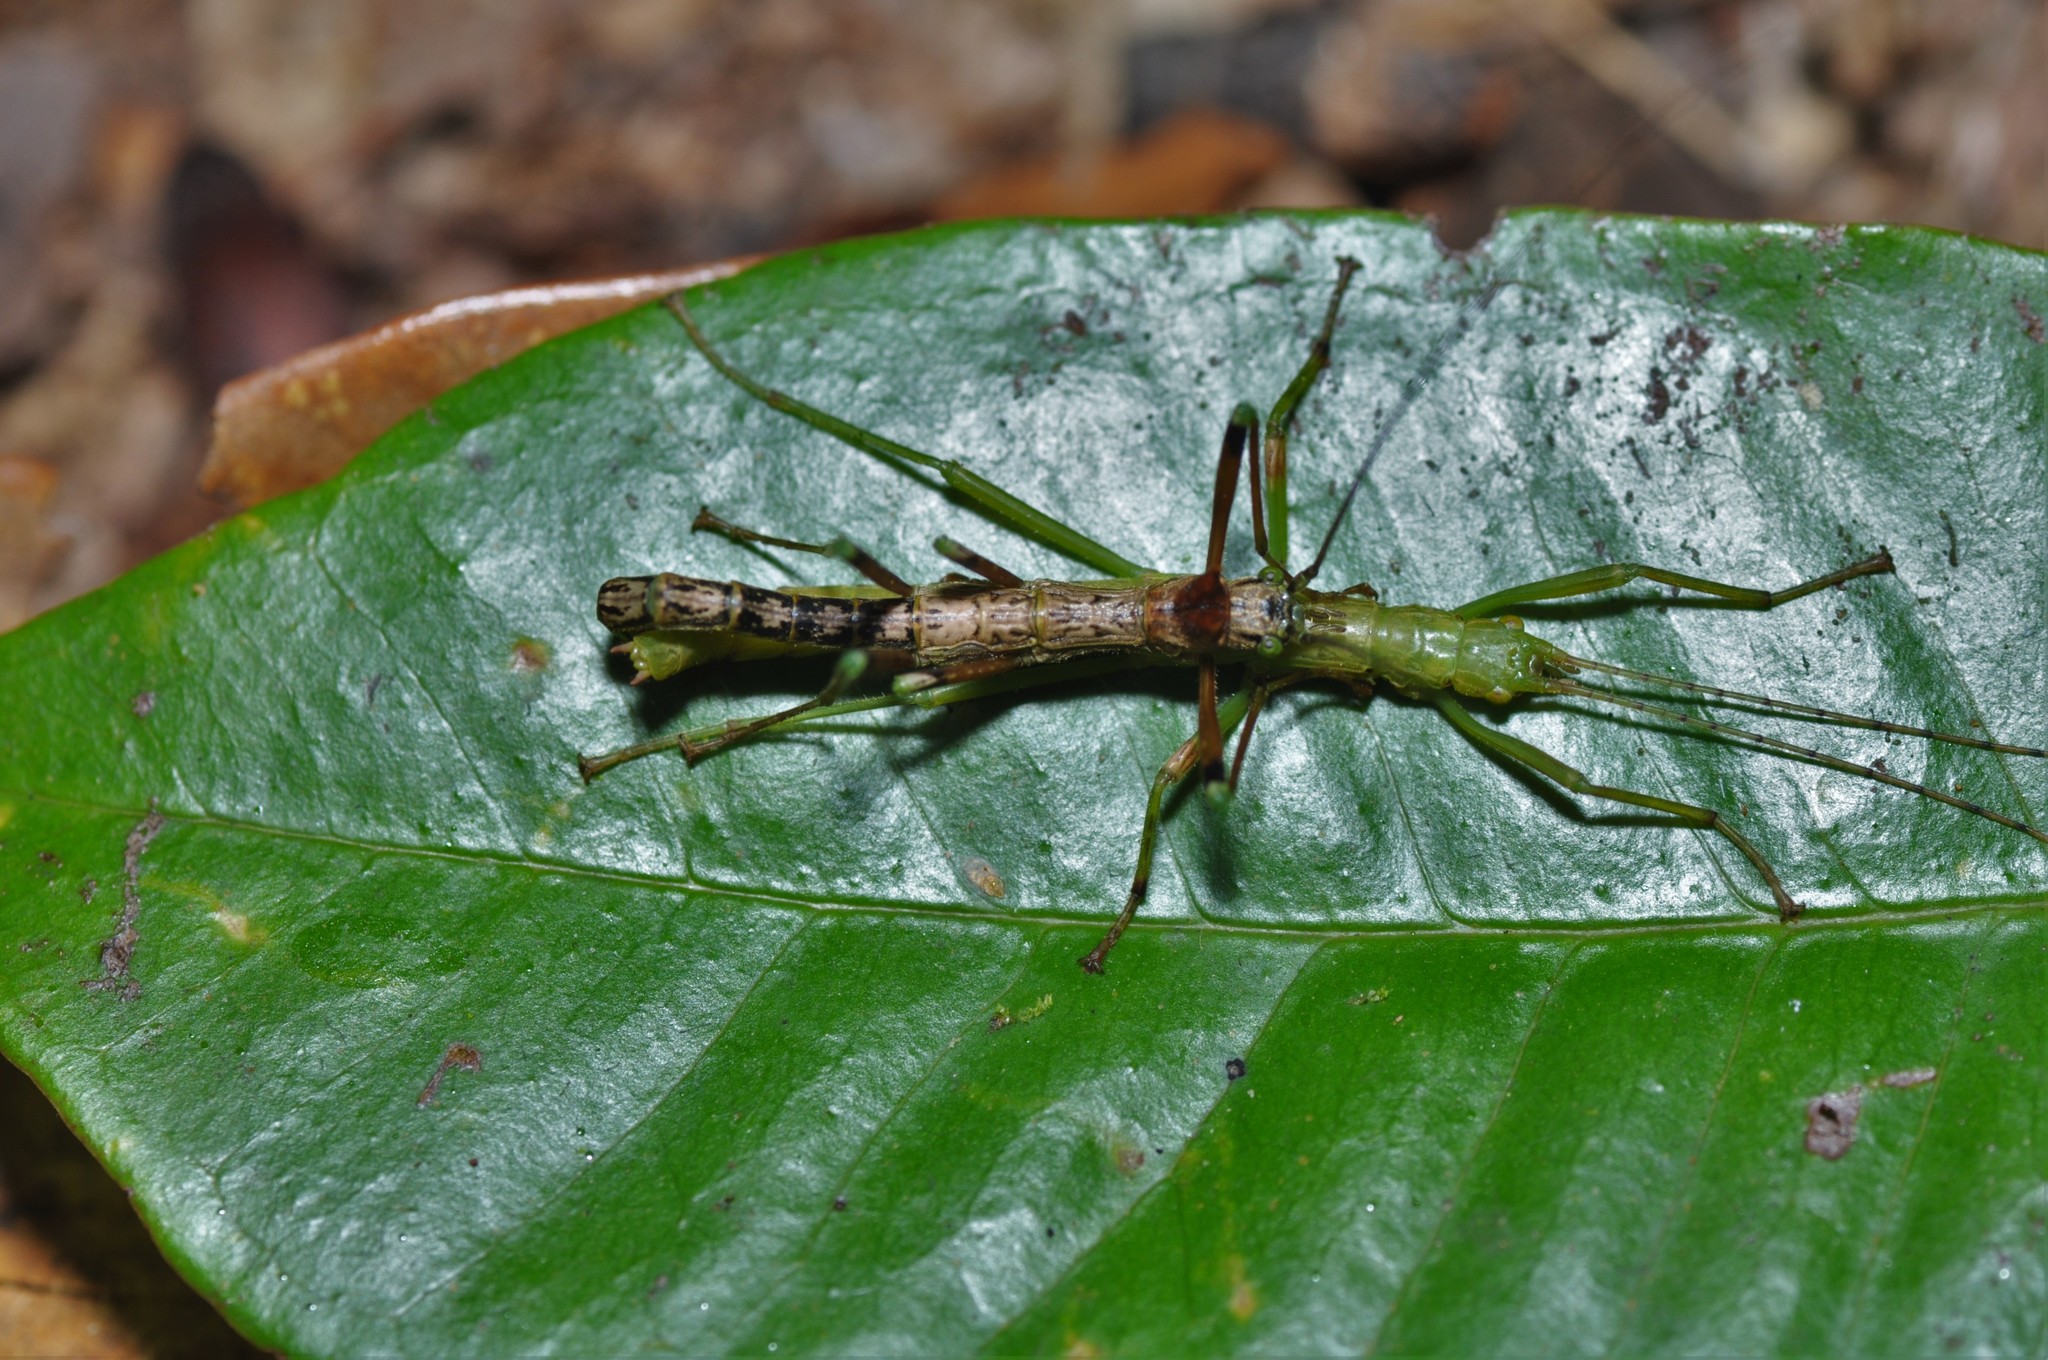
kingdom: Animalia
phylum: Arthropoda
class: Insecta
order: Phasmida
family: Aschiphasmatidae
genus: Parabrosoma
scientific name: Parabrosoma bispinosum
